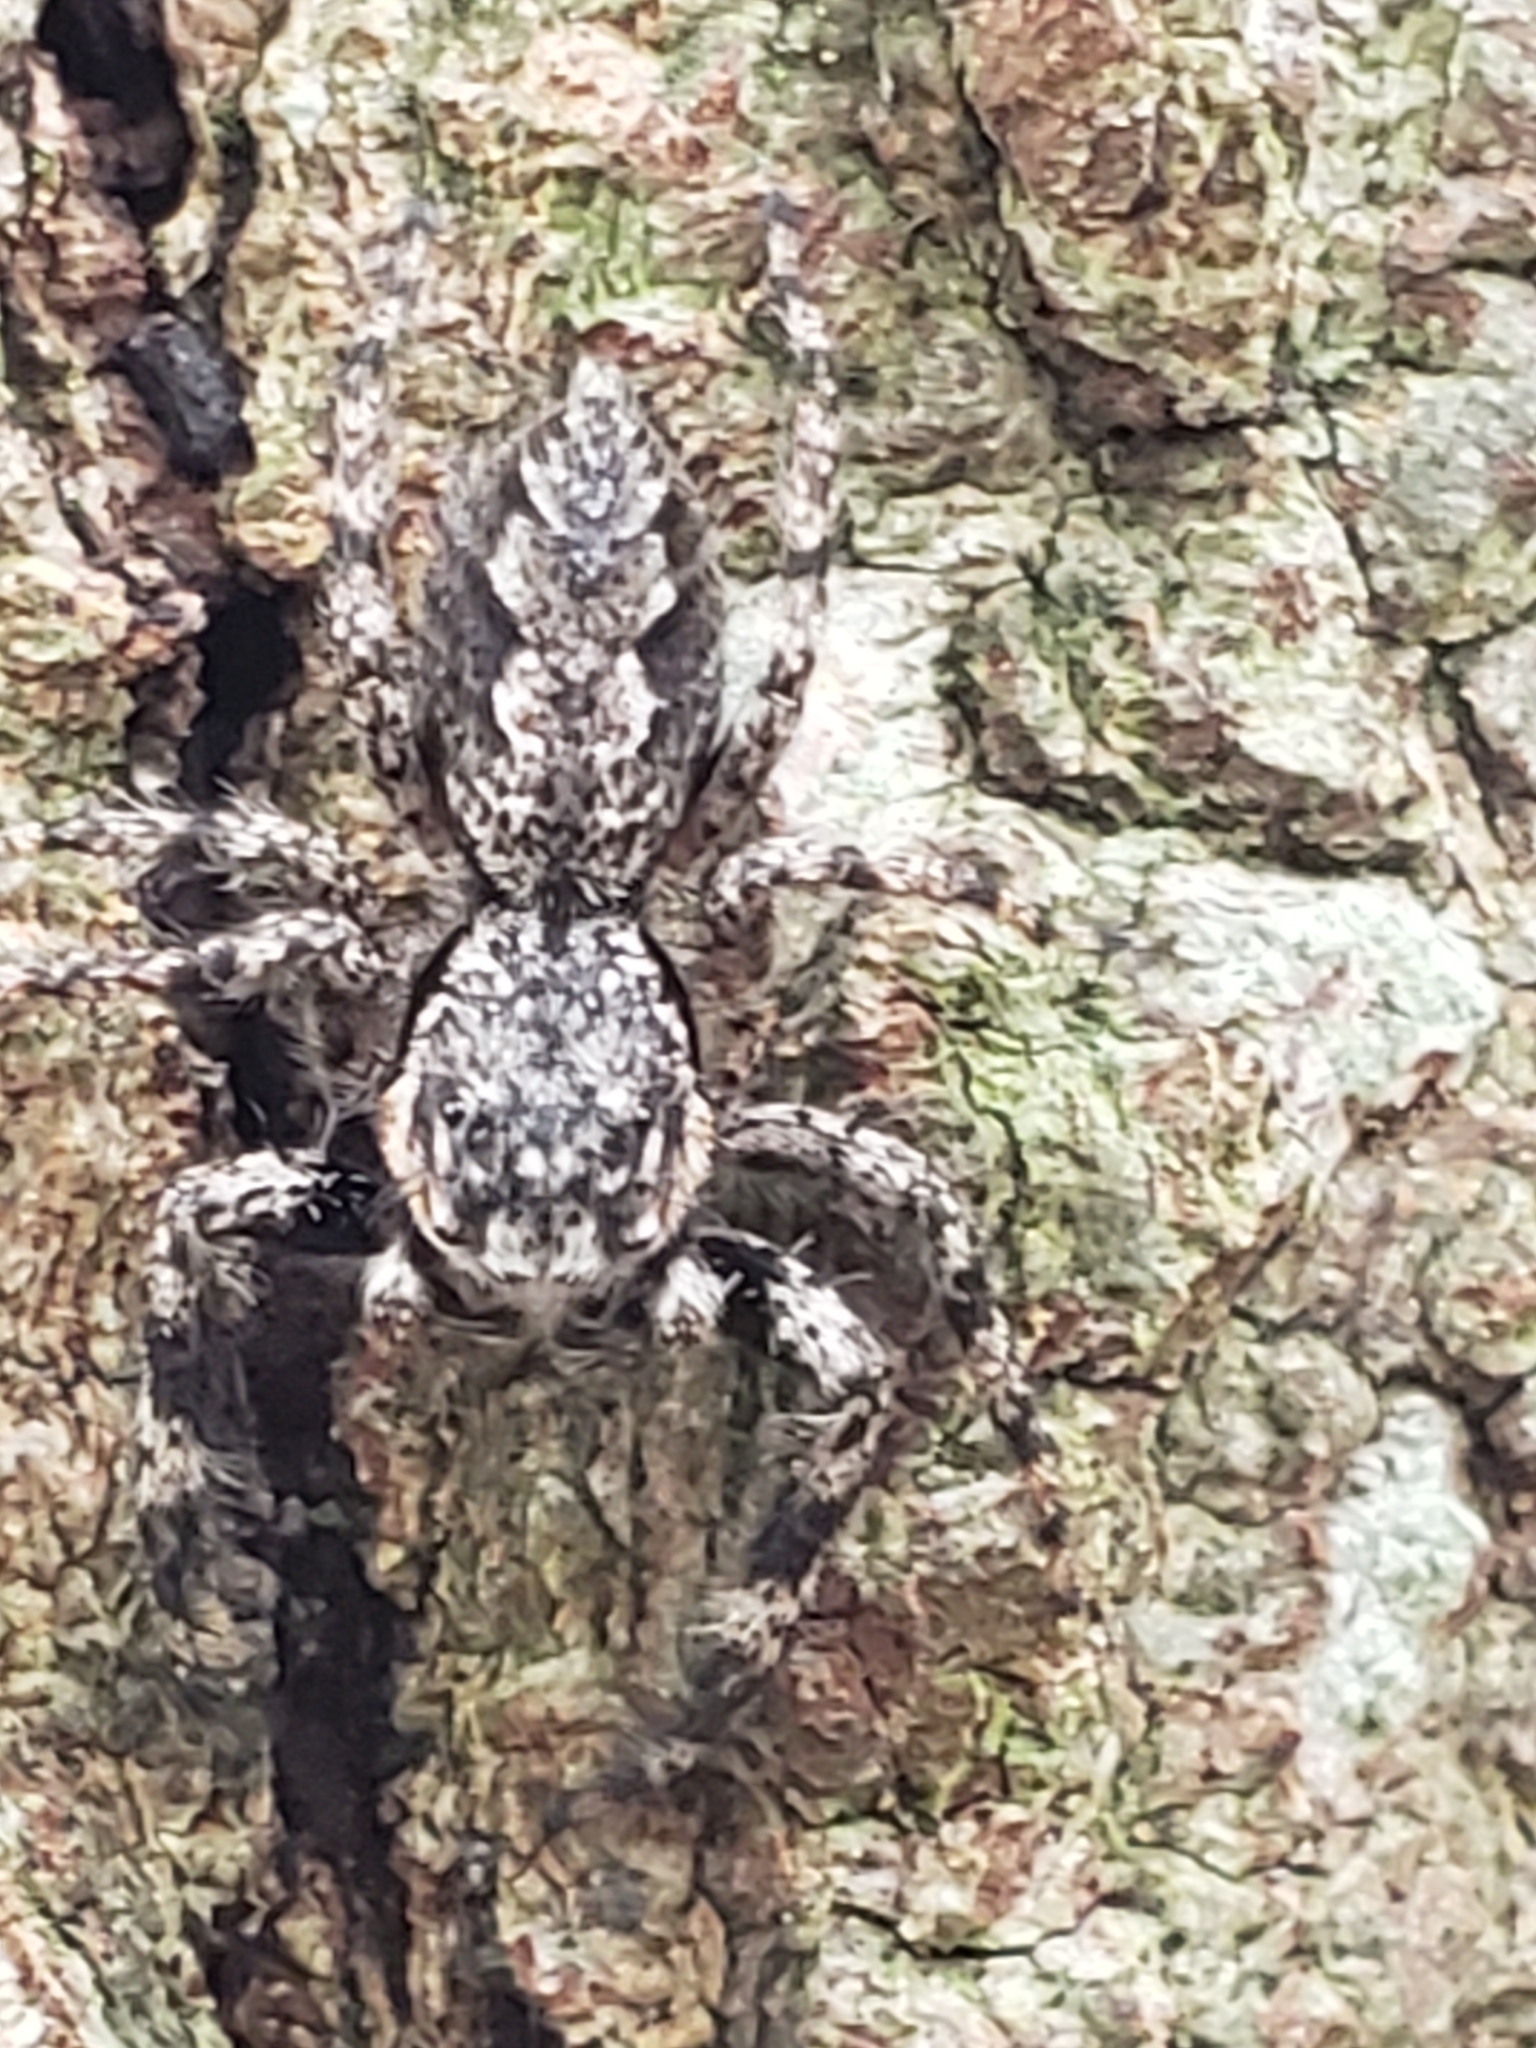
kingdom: Animalia
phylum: Arthropoda
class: Arachnida
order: Araneae
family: Salticidae
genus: Platycryptus
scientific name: Platycryptus undatus
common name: Tan jumping spider
